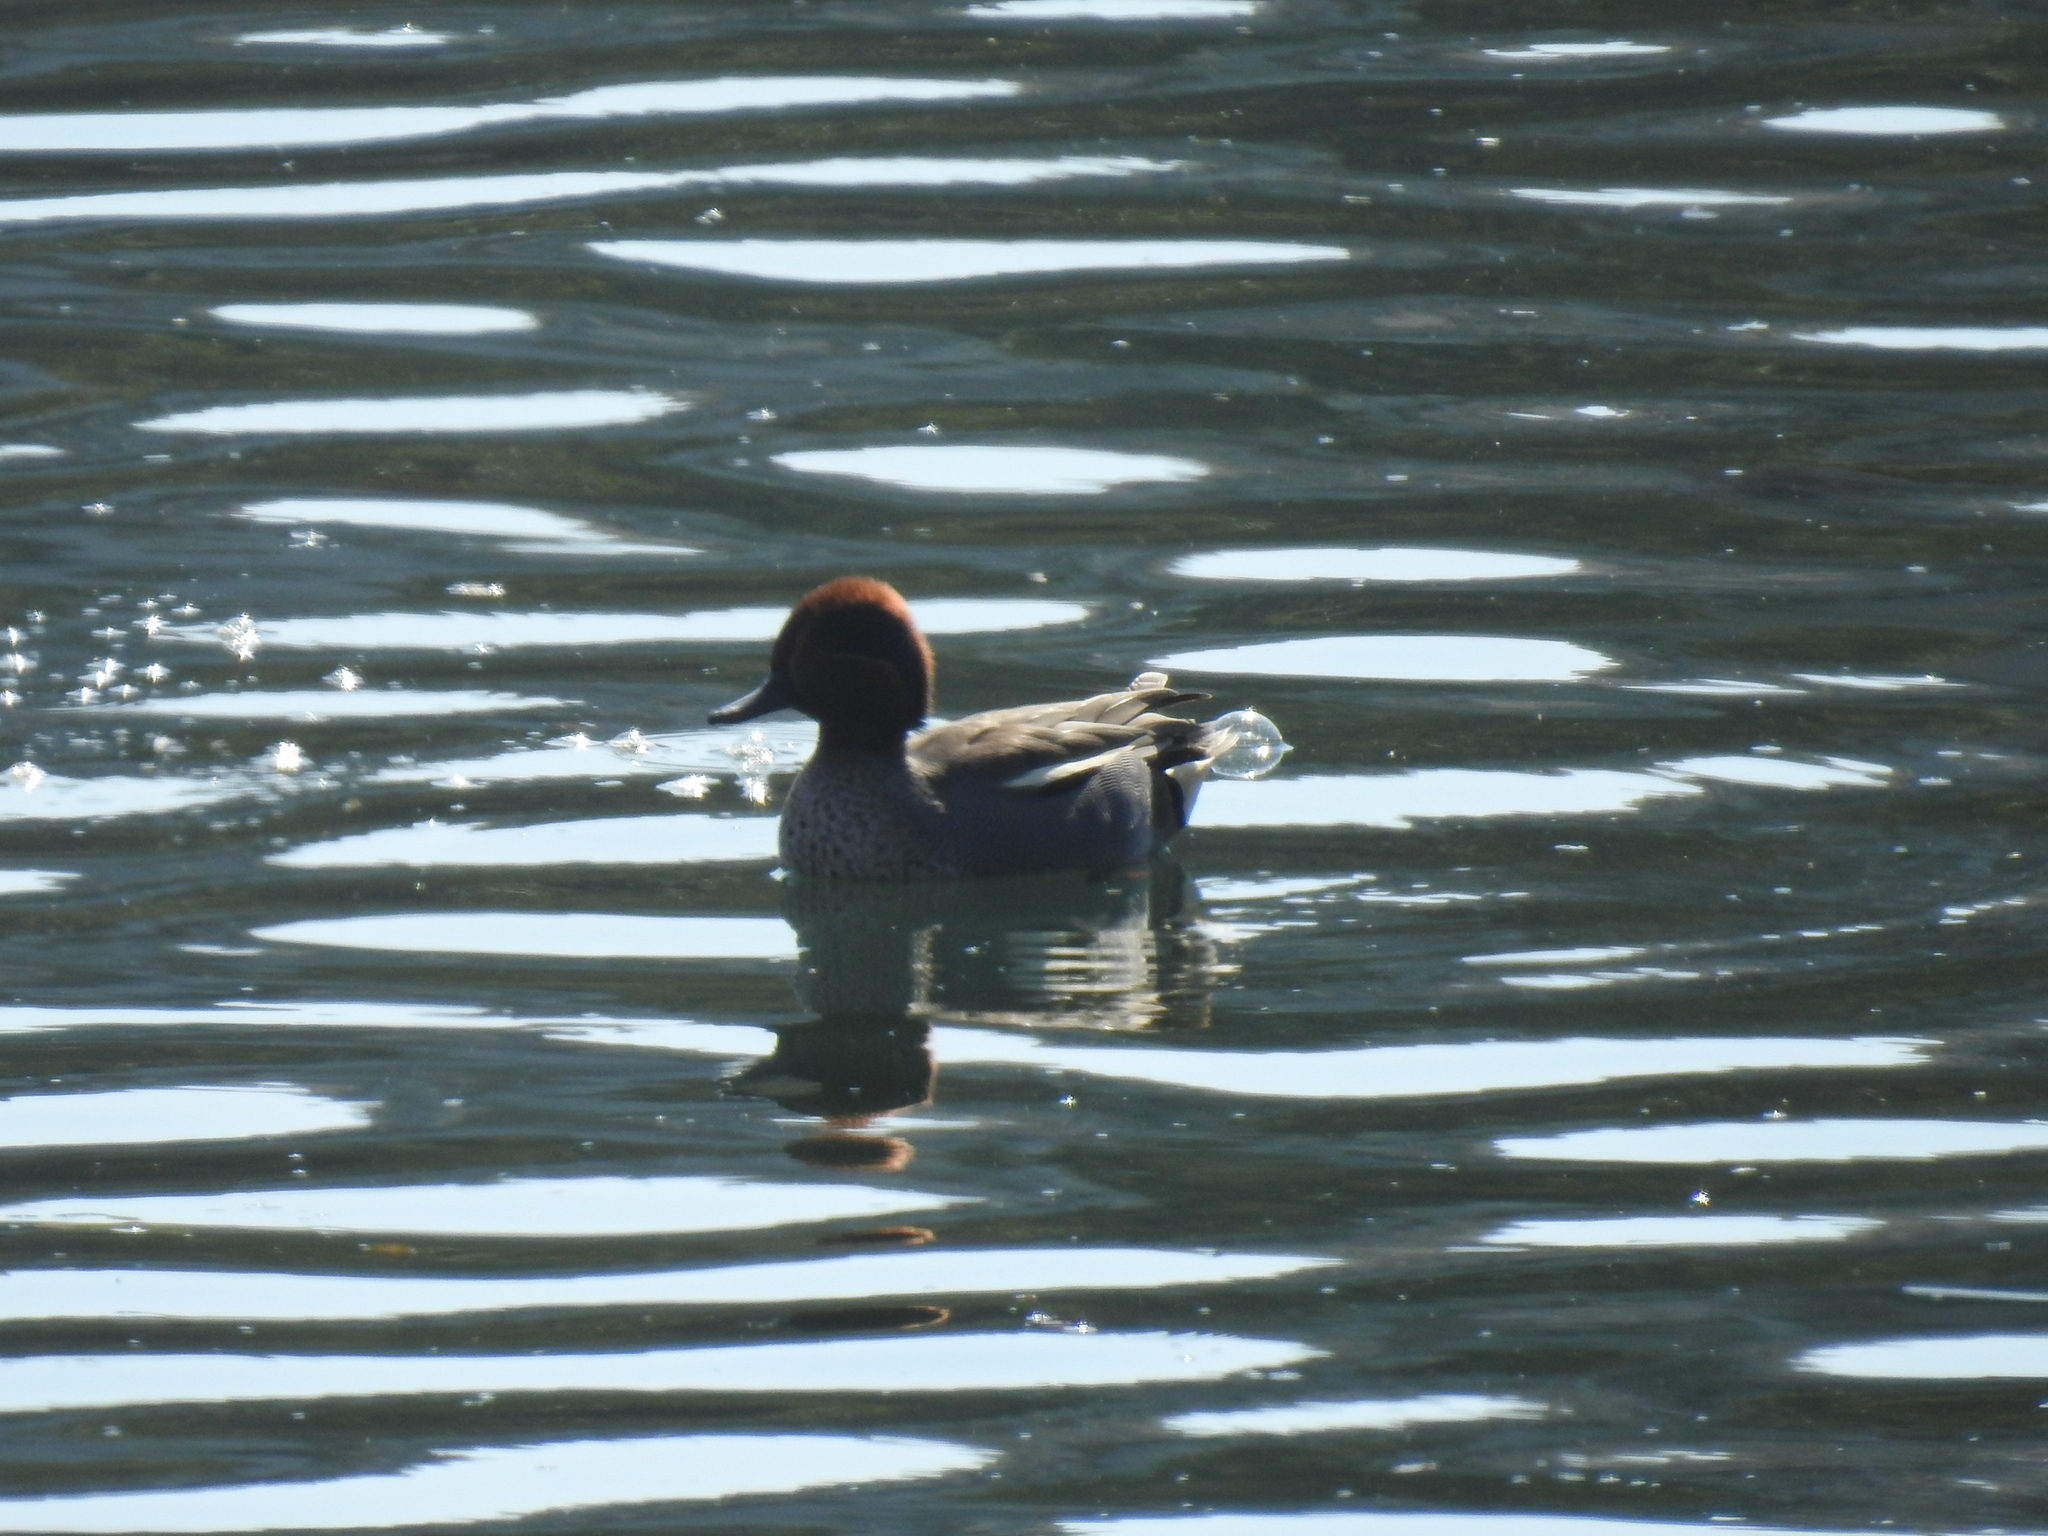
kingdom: Animalia
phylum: Chordata
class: Aves
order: Anseriformes
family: Anatidae
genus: Anas
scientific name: Anas crecca
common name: Eurasian teal
